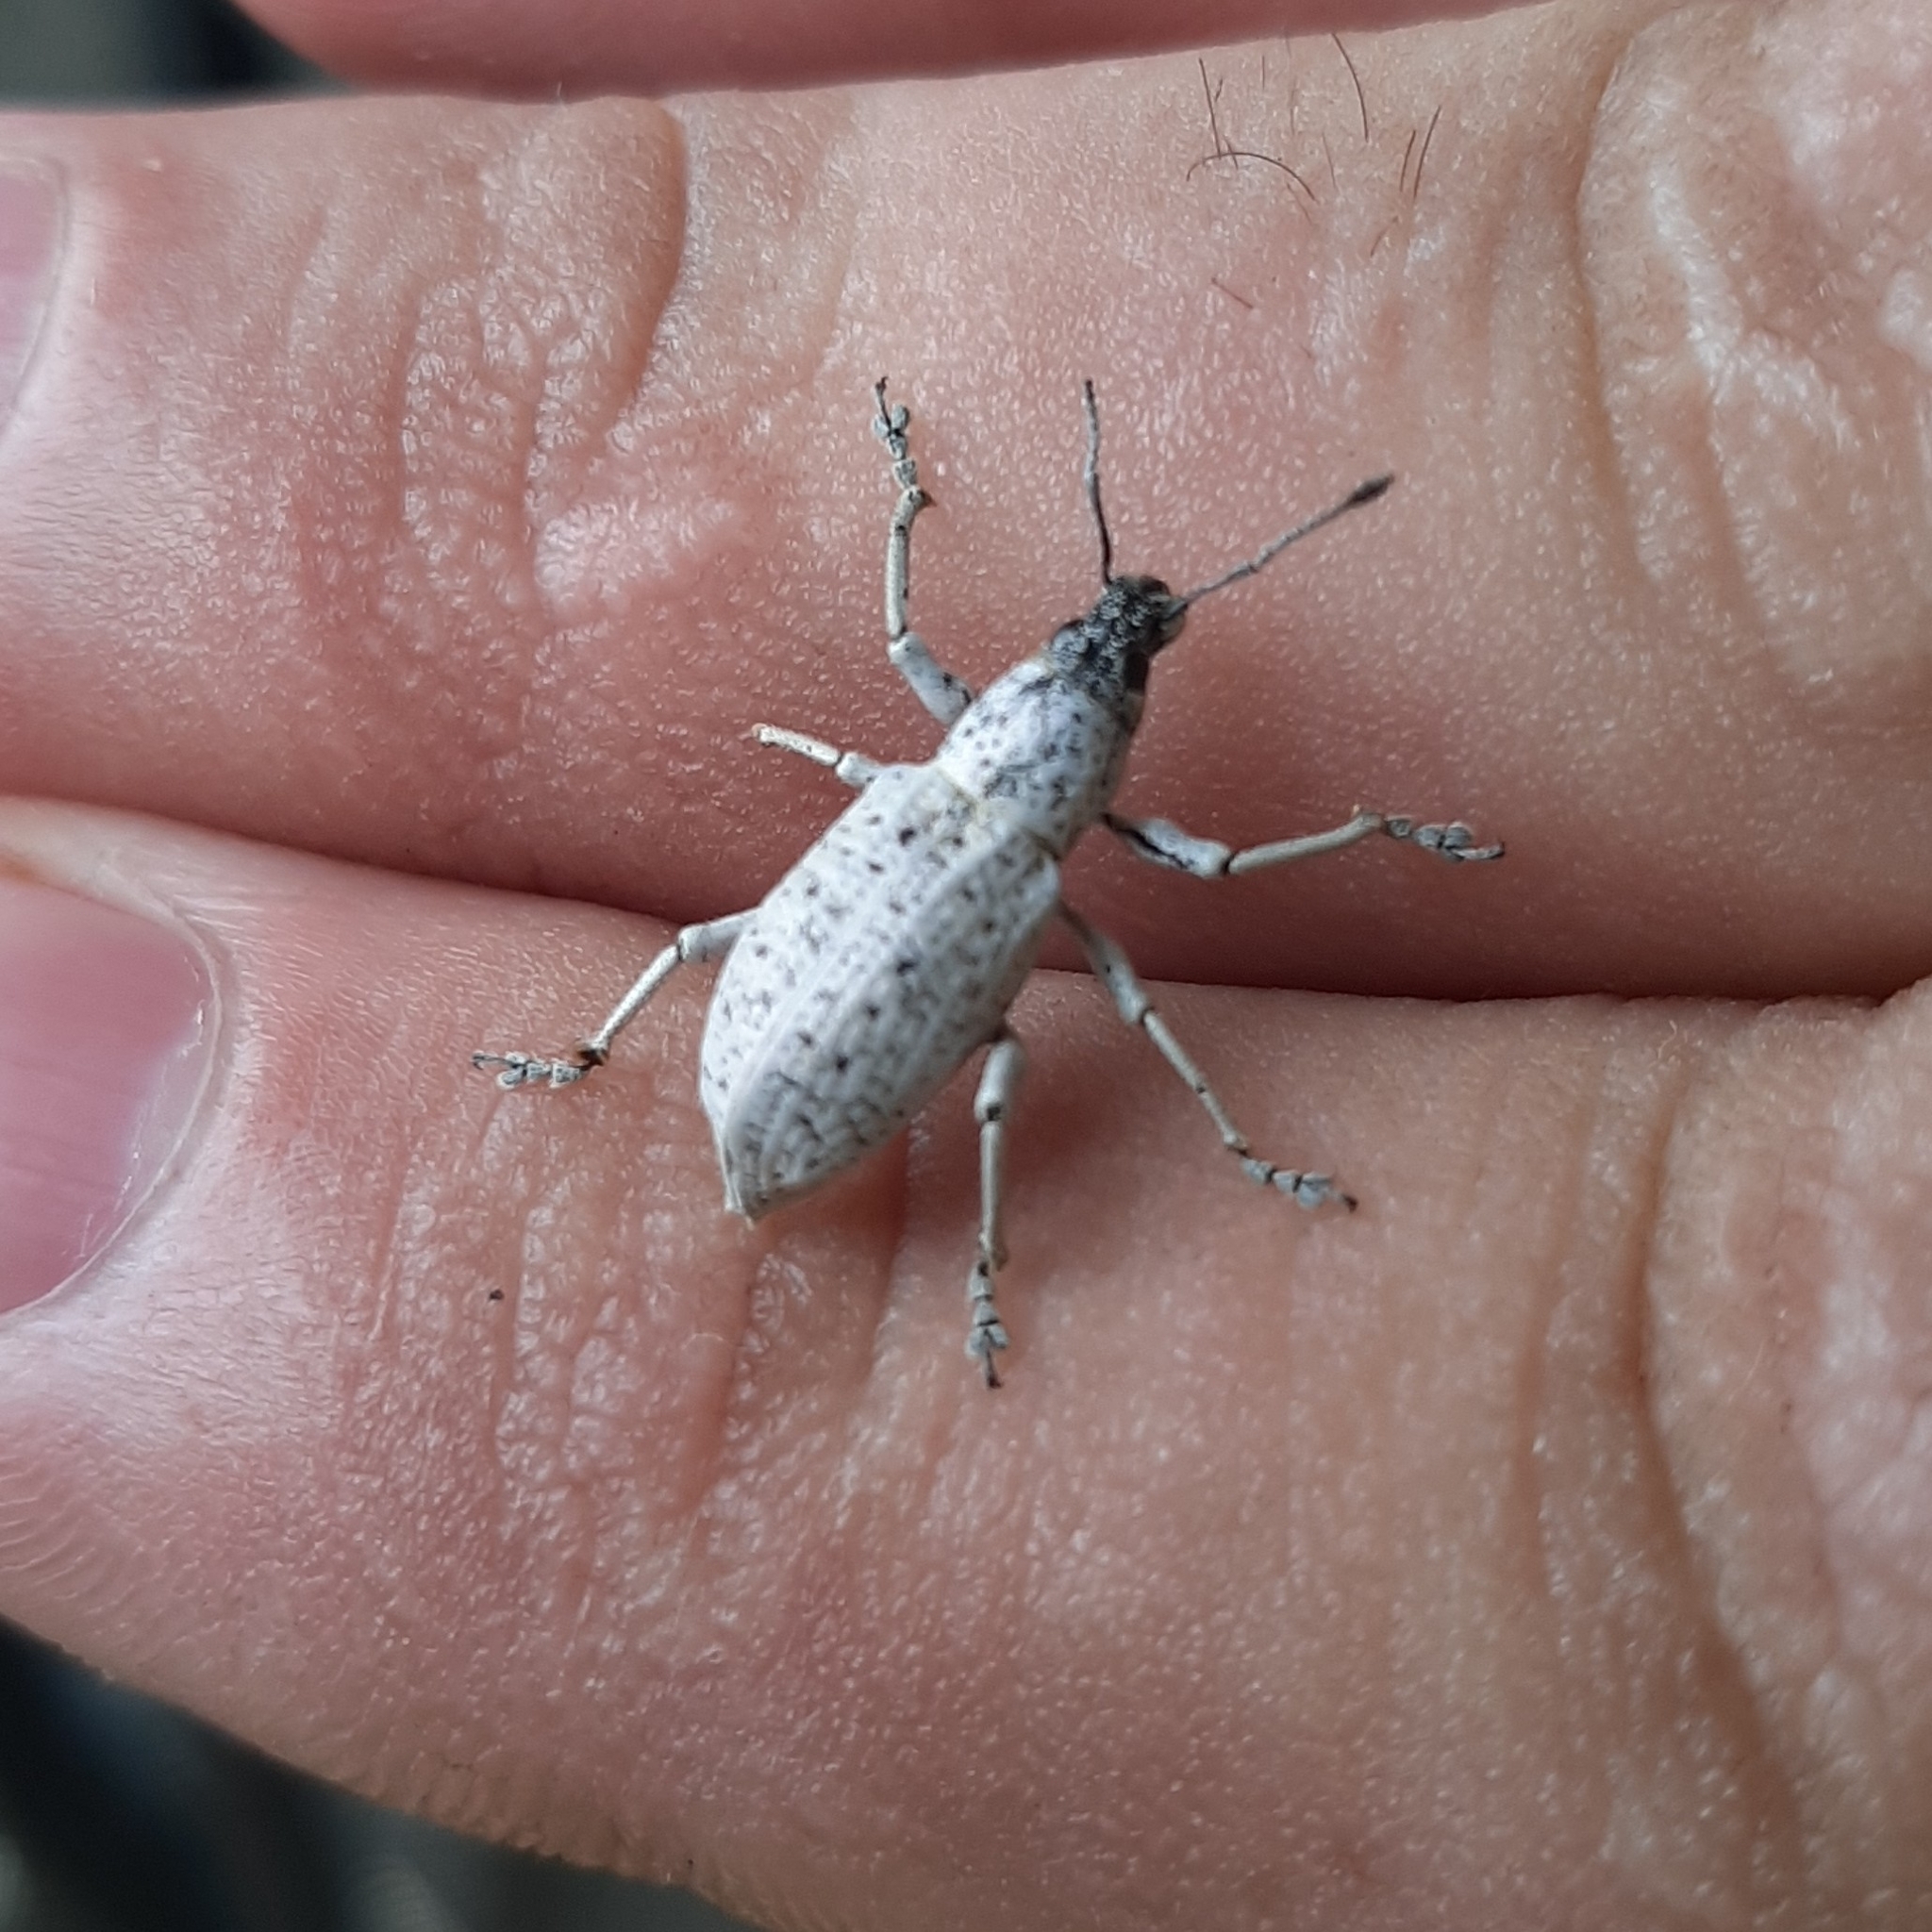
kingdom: Animalia
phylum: Arthropoda
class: Insecta
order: Coleoptera
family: Curculionidae
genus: Exophthalmus
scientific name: Exophthalmus scalptus
